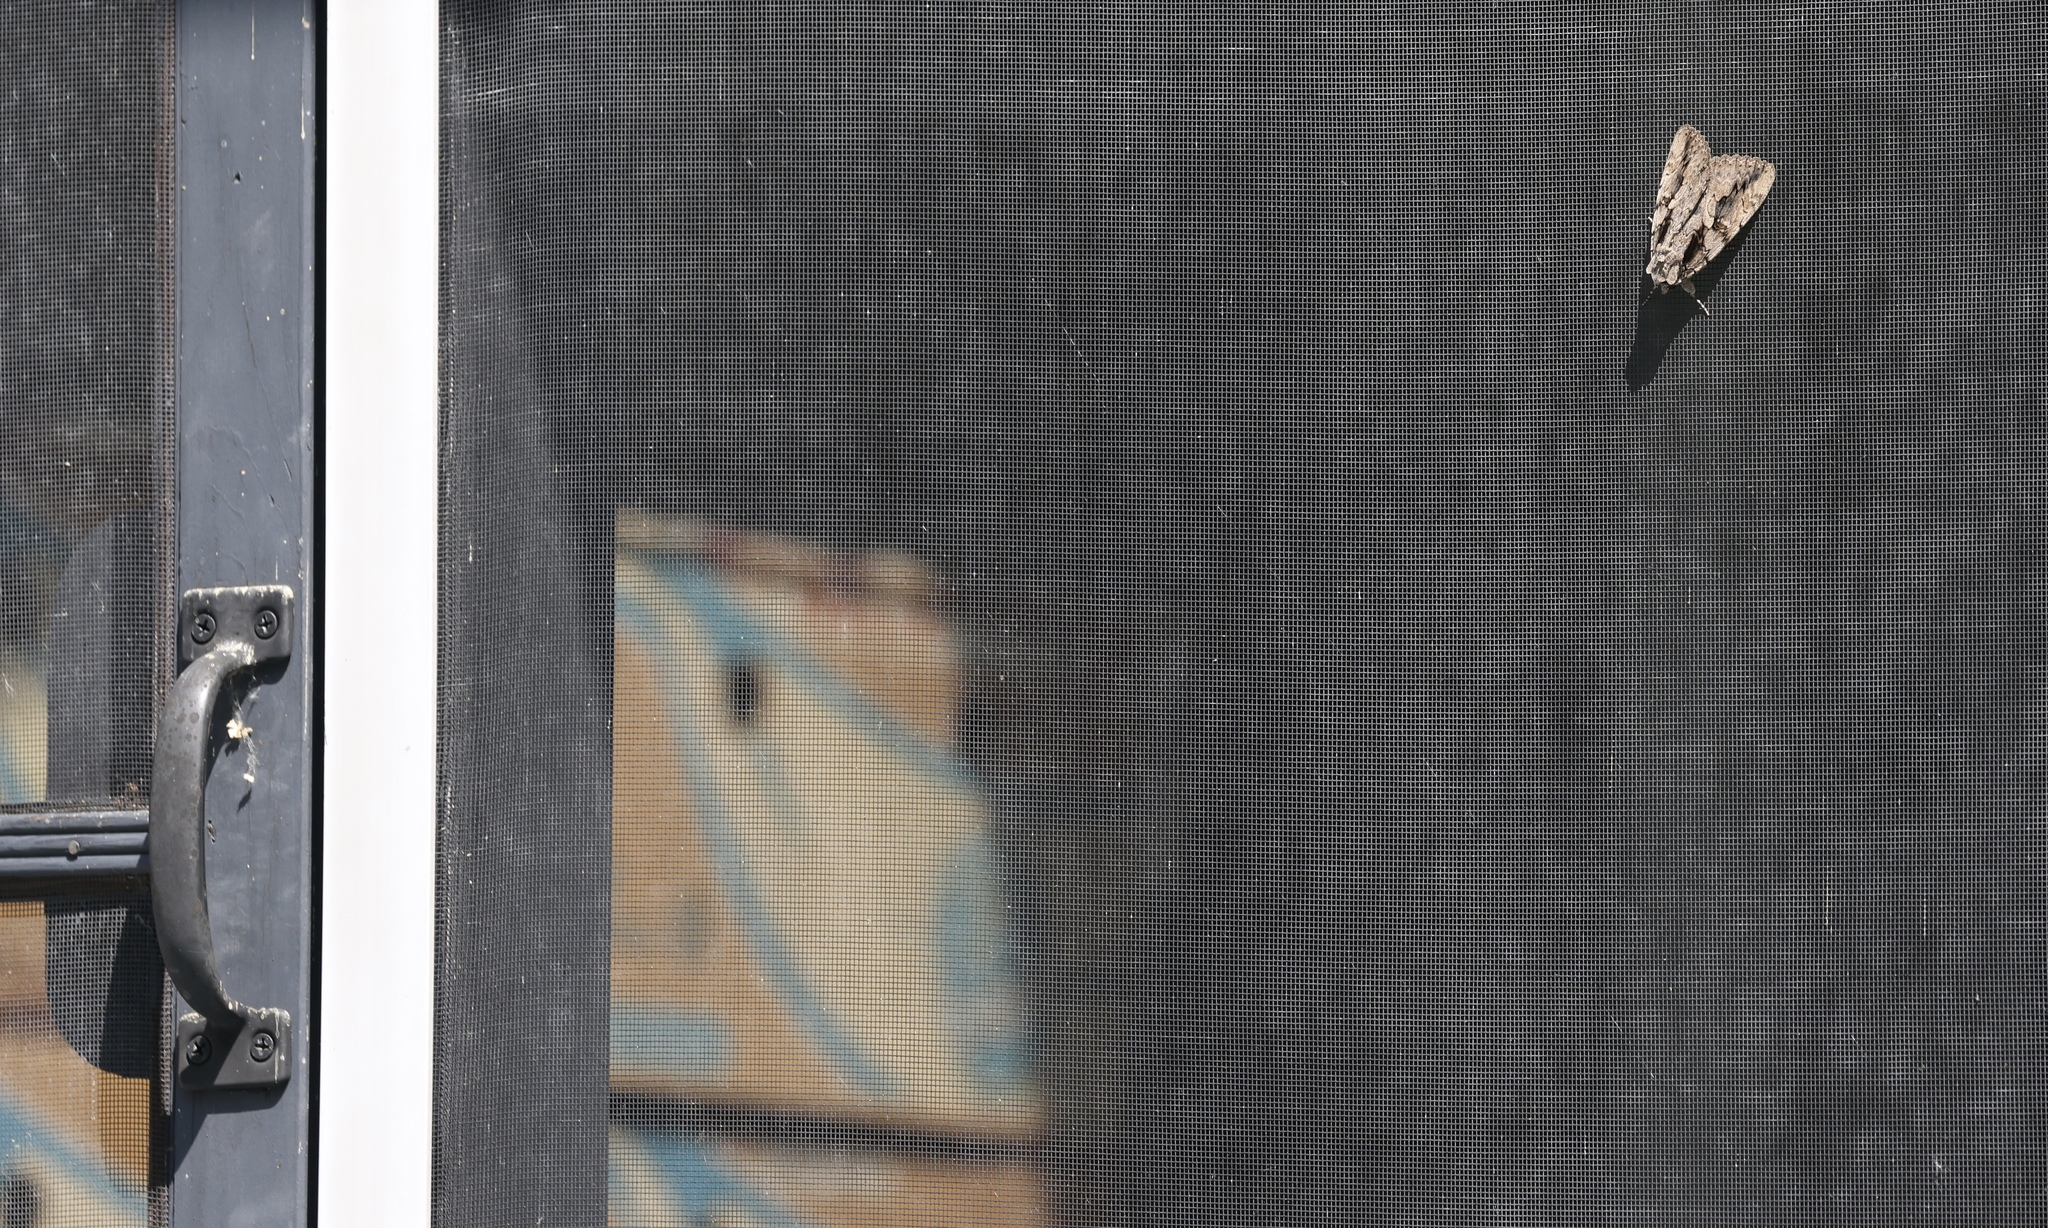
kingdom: Animalia
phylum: Arthropoda
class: Insecta
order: Lepidoptera
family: Erebidae
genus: Catocala
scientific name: Catocala amatrix
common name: Sweetheart underwing
